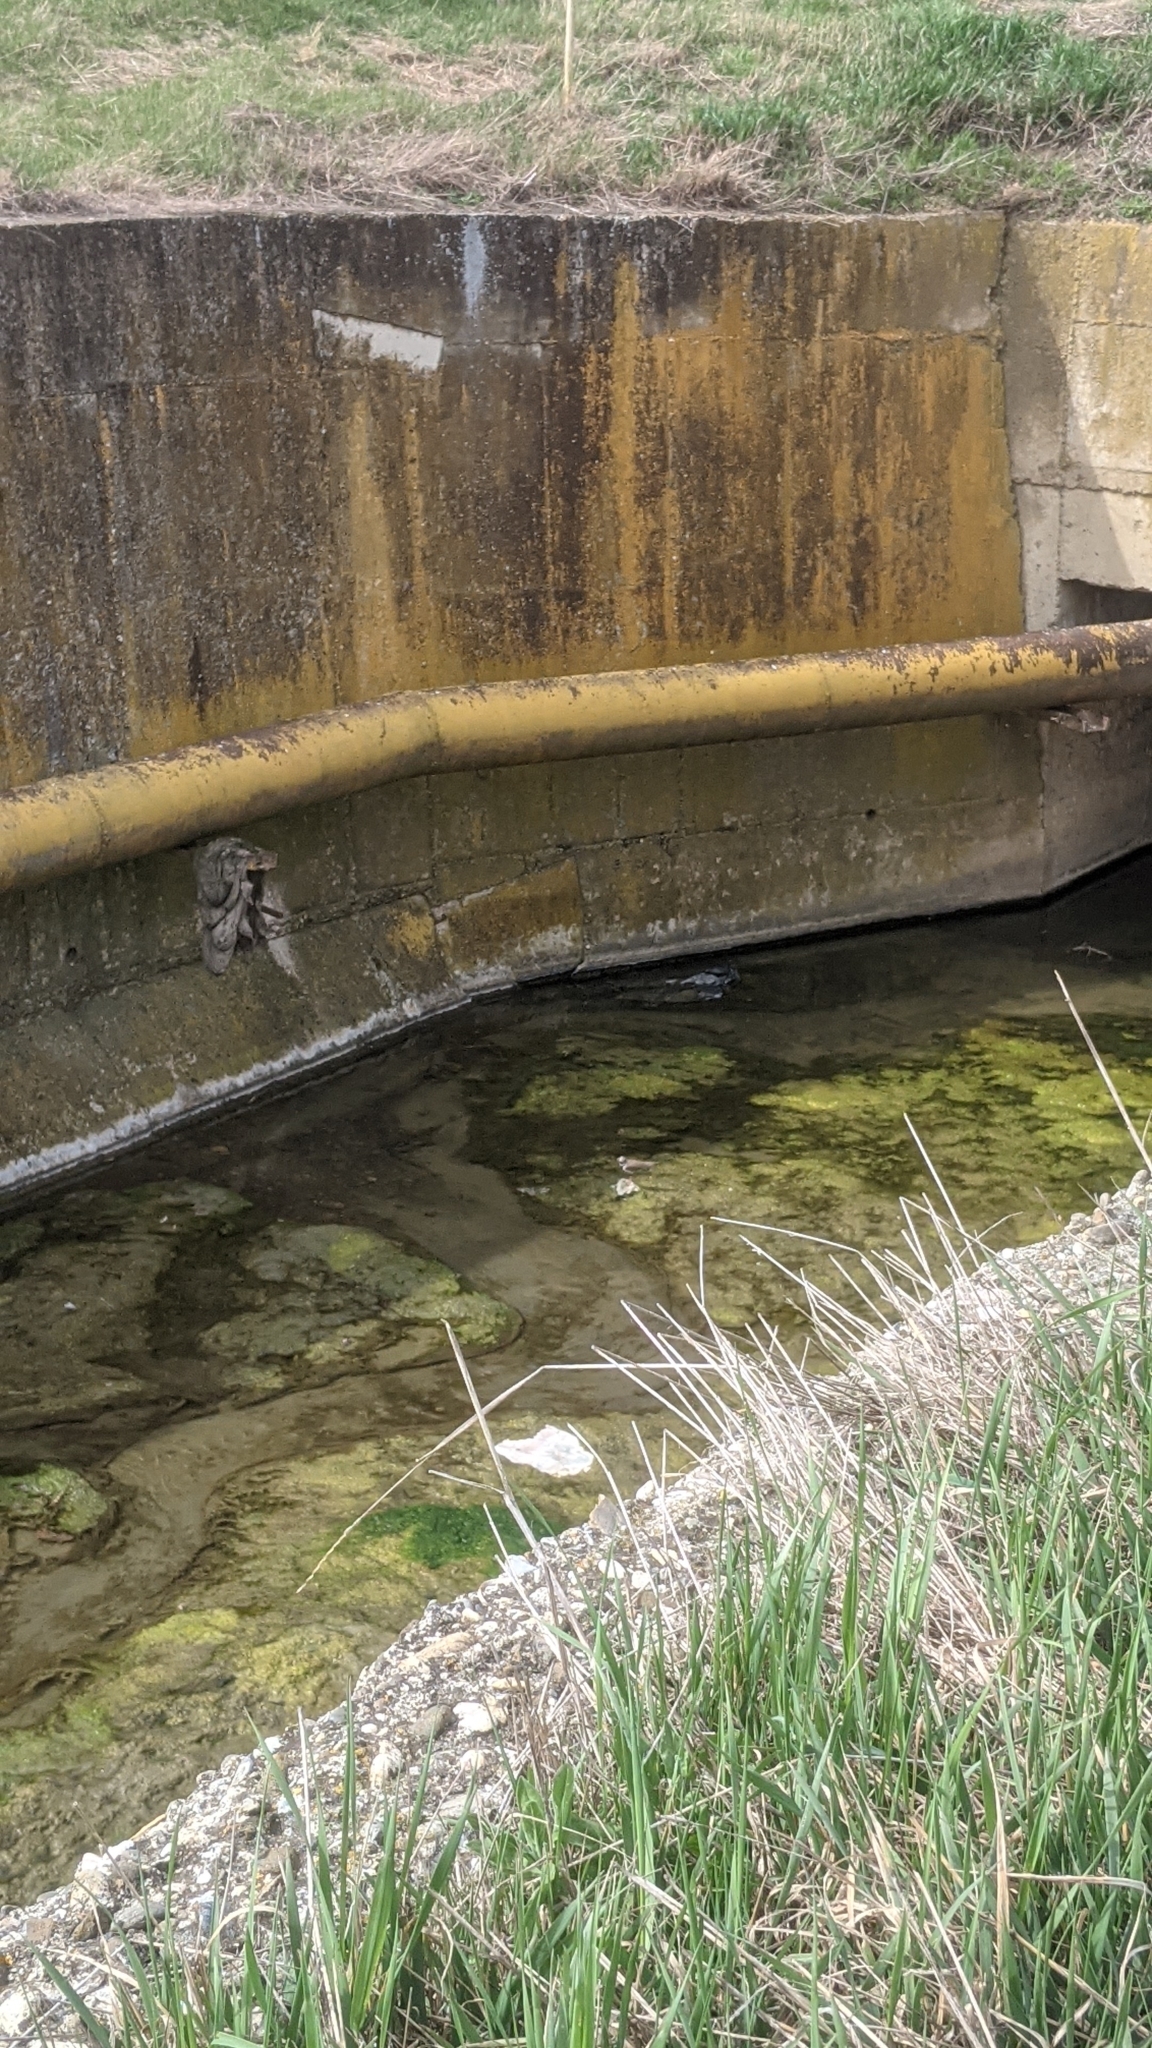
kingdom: Animalia
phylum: Chordata
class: Aves
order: Charadriiformes
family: Charadriidae
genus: Charadrius
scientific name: Charadrius dubius
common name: Little ringed plover
